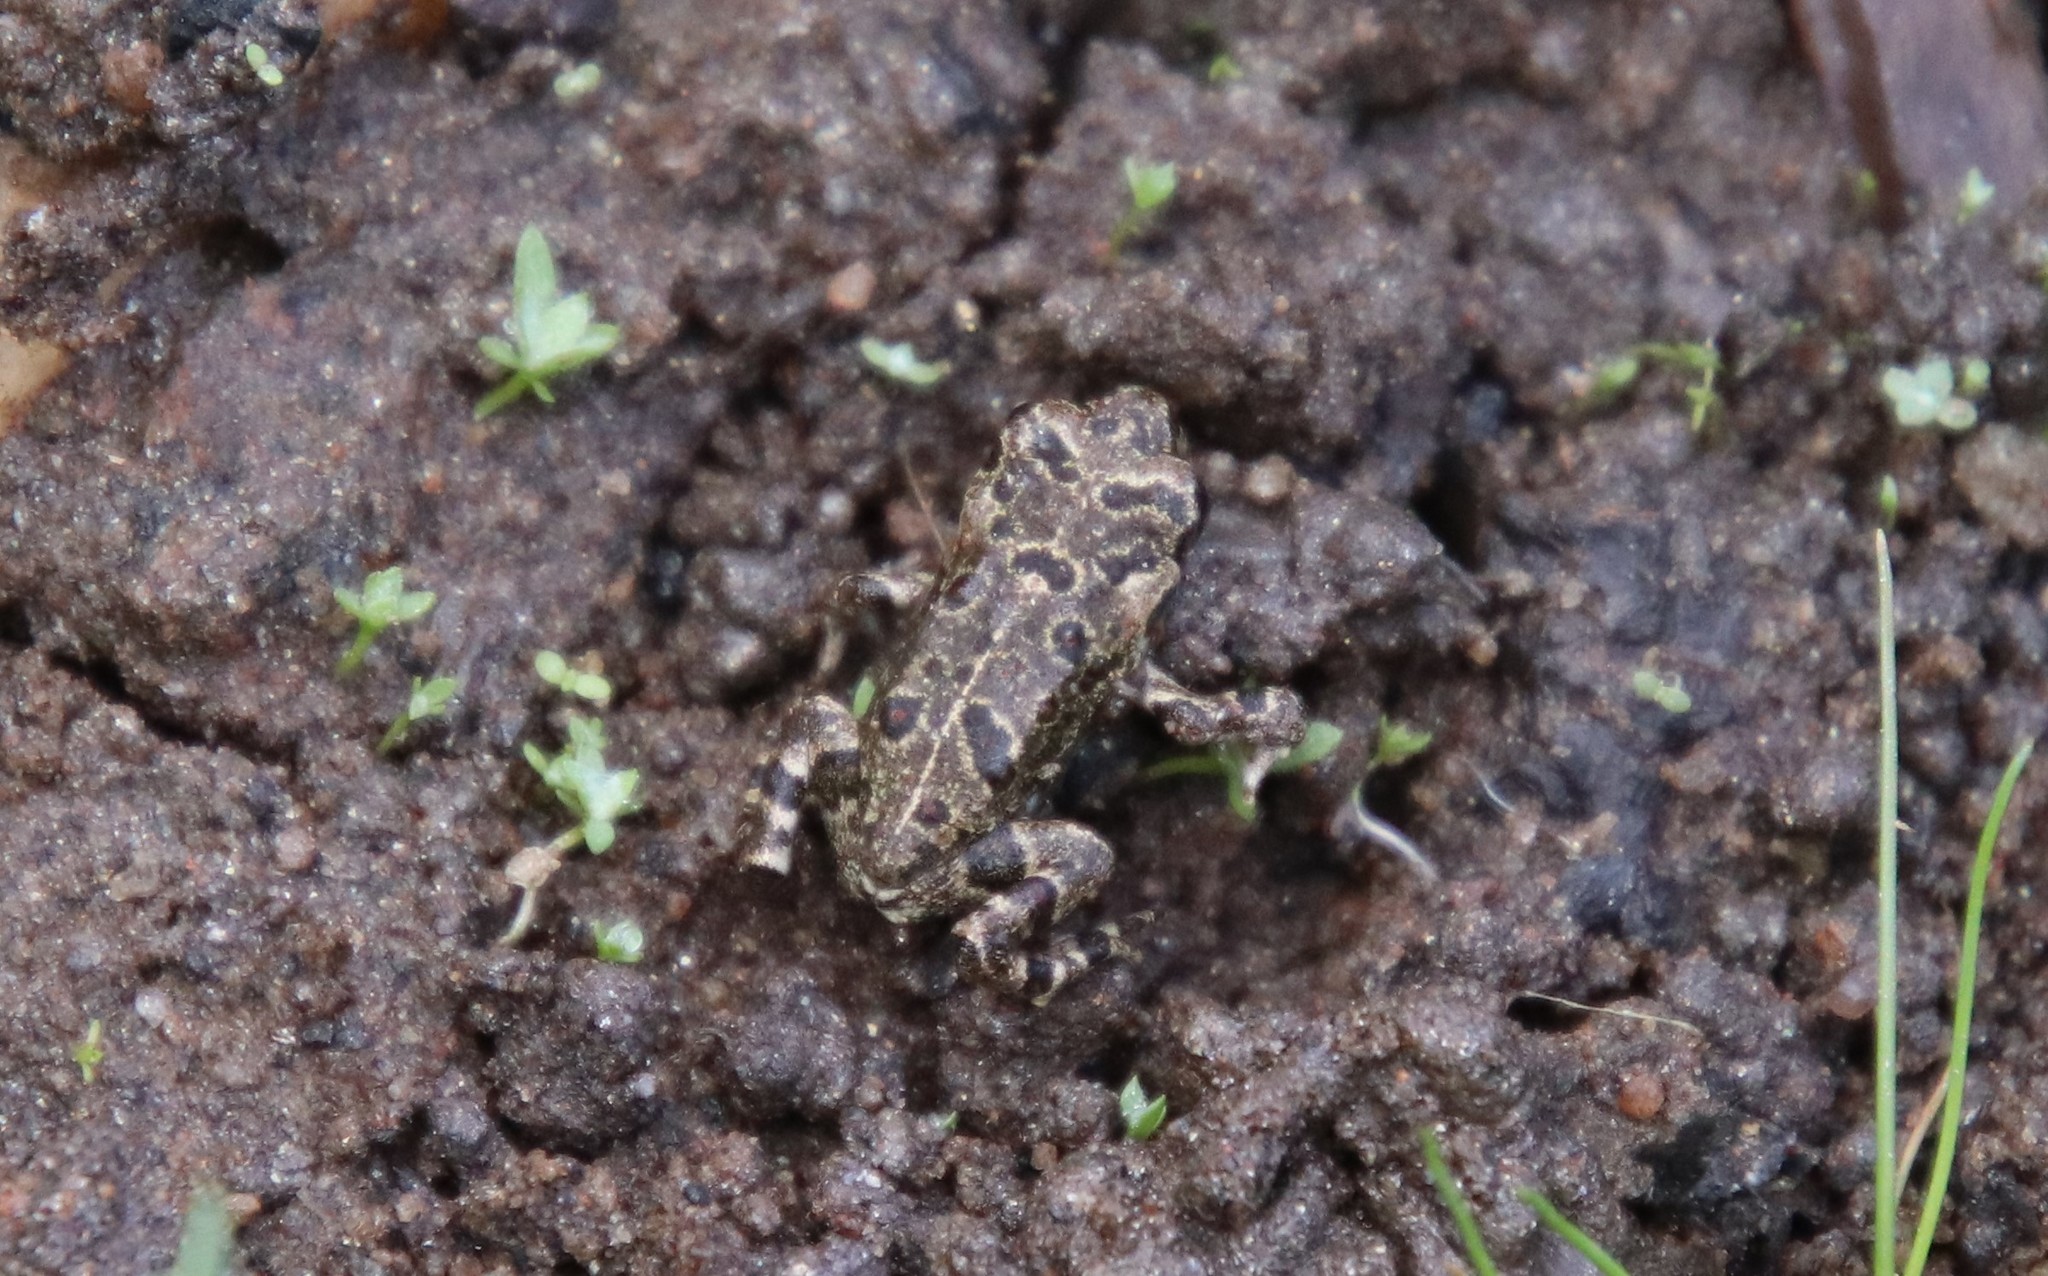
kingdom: Animalia
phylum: Chordata
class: Amphibia
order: Anura
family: Bufonidae
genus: Anaxyrus
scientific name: Anaxyrus boreas
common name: Western toad
